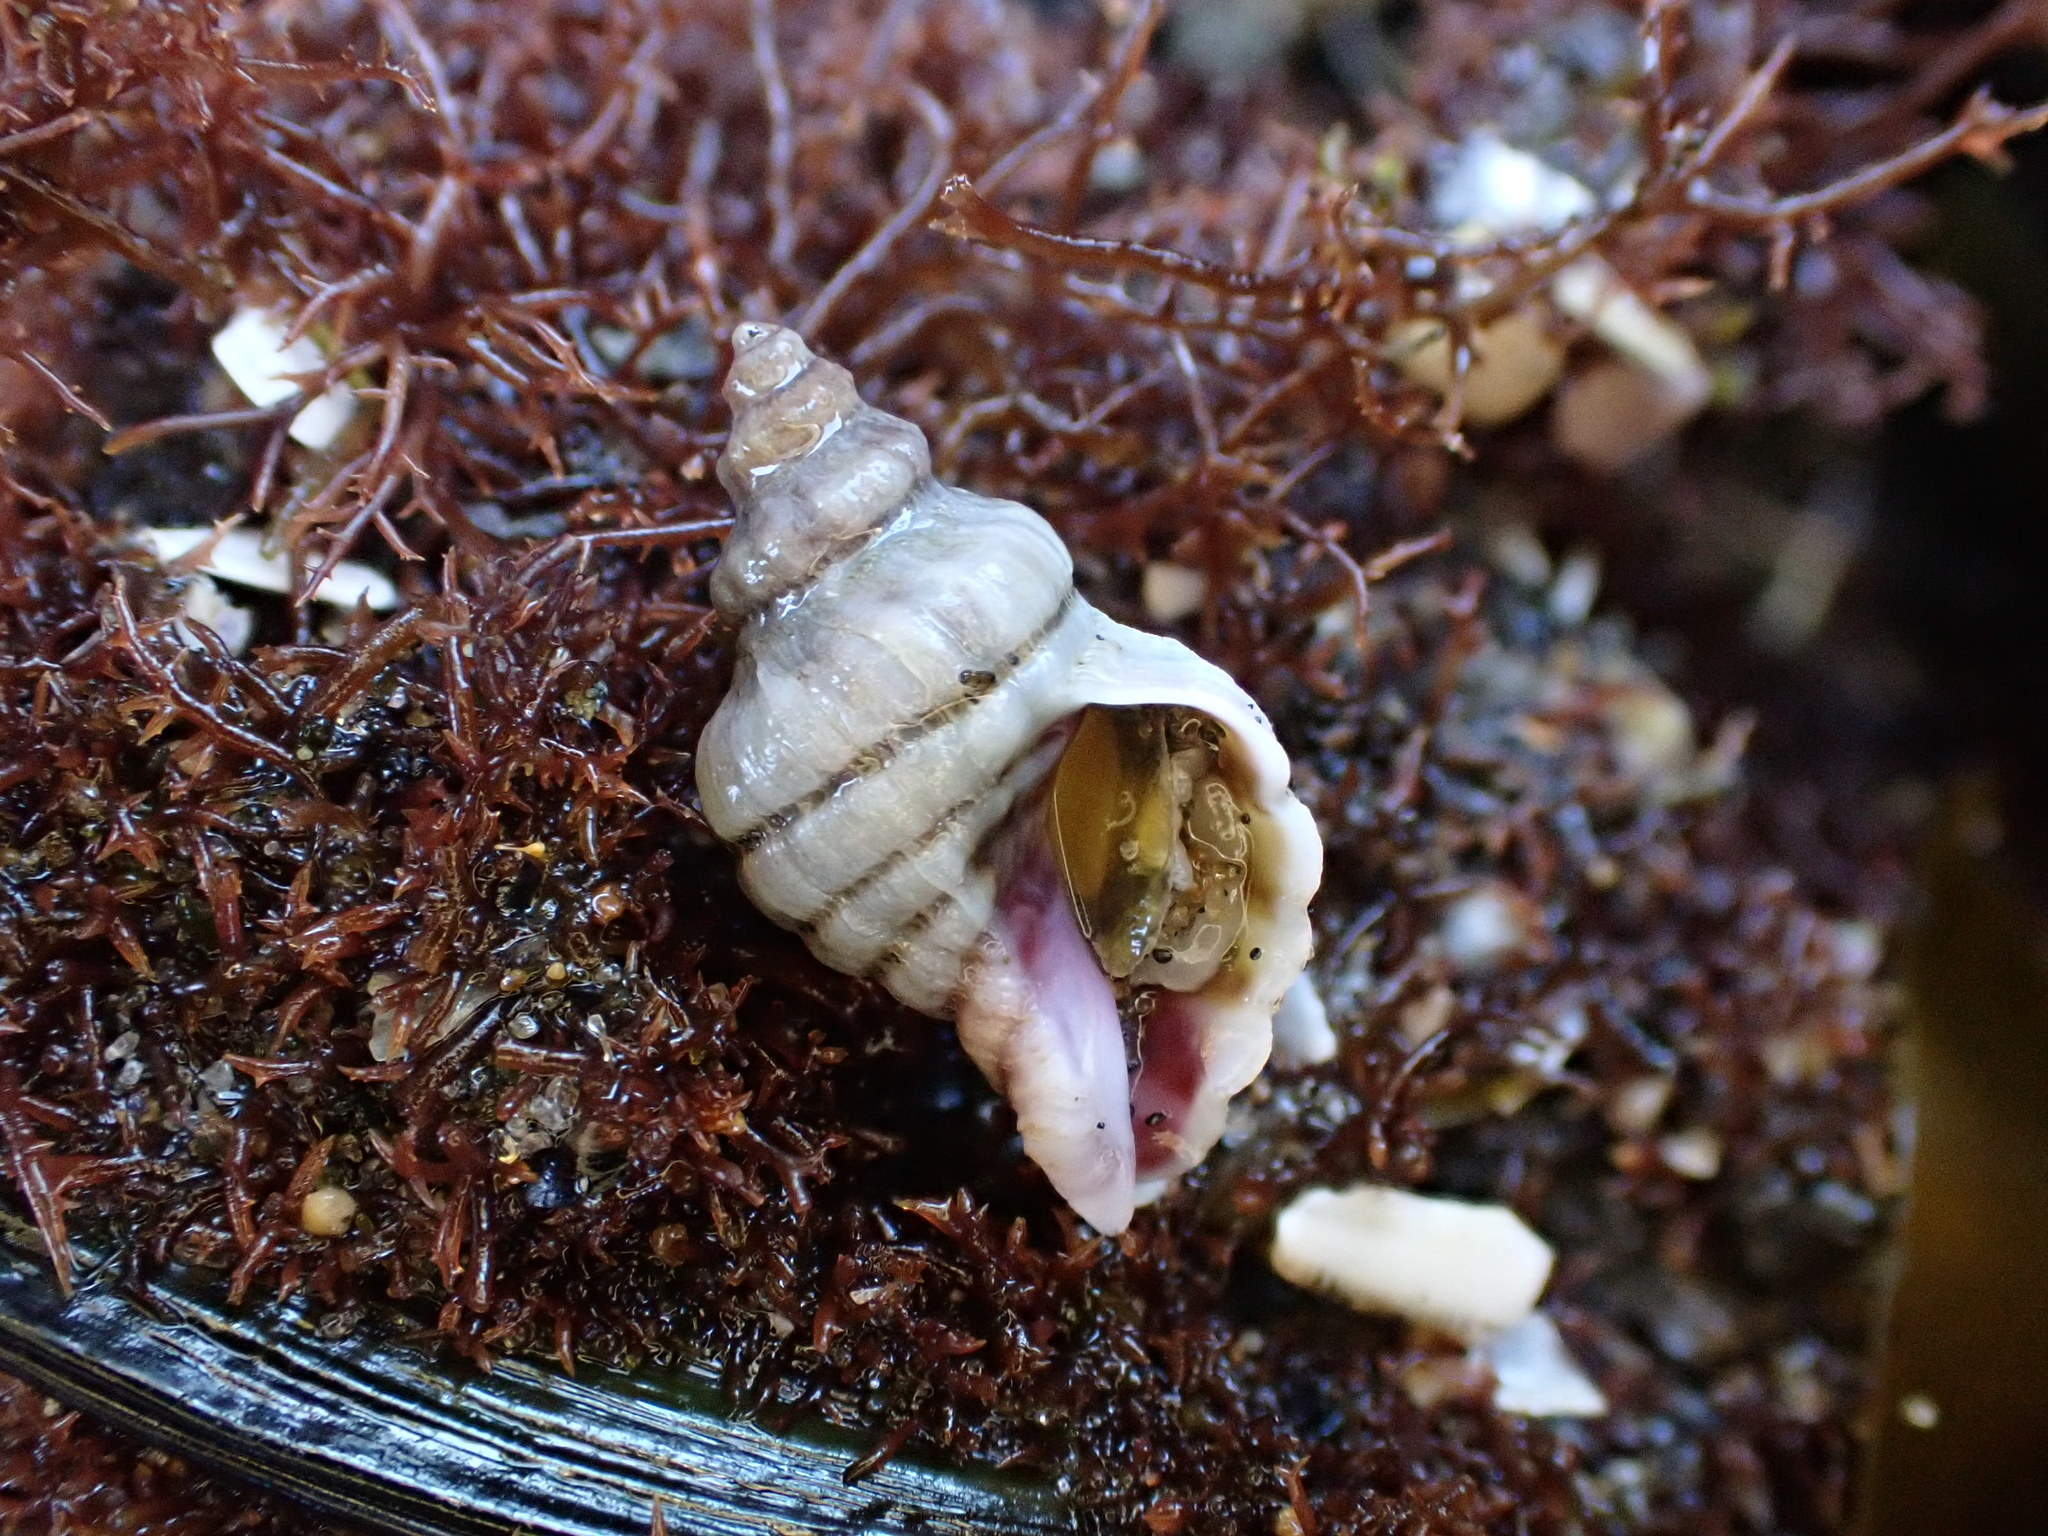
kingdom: Animalia
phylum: Mollusca
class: Gastropoda
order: Neogastropoda
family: Muricidae
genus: Paratrophon
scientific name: Paratrophon cheesemani
